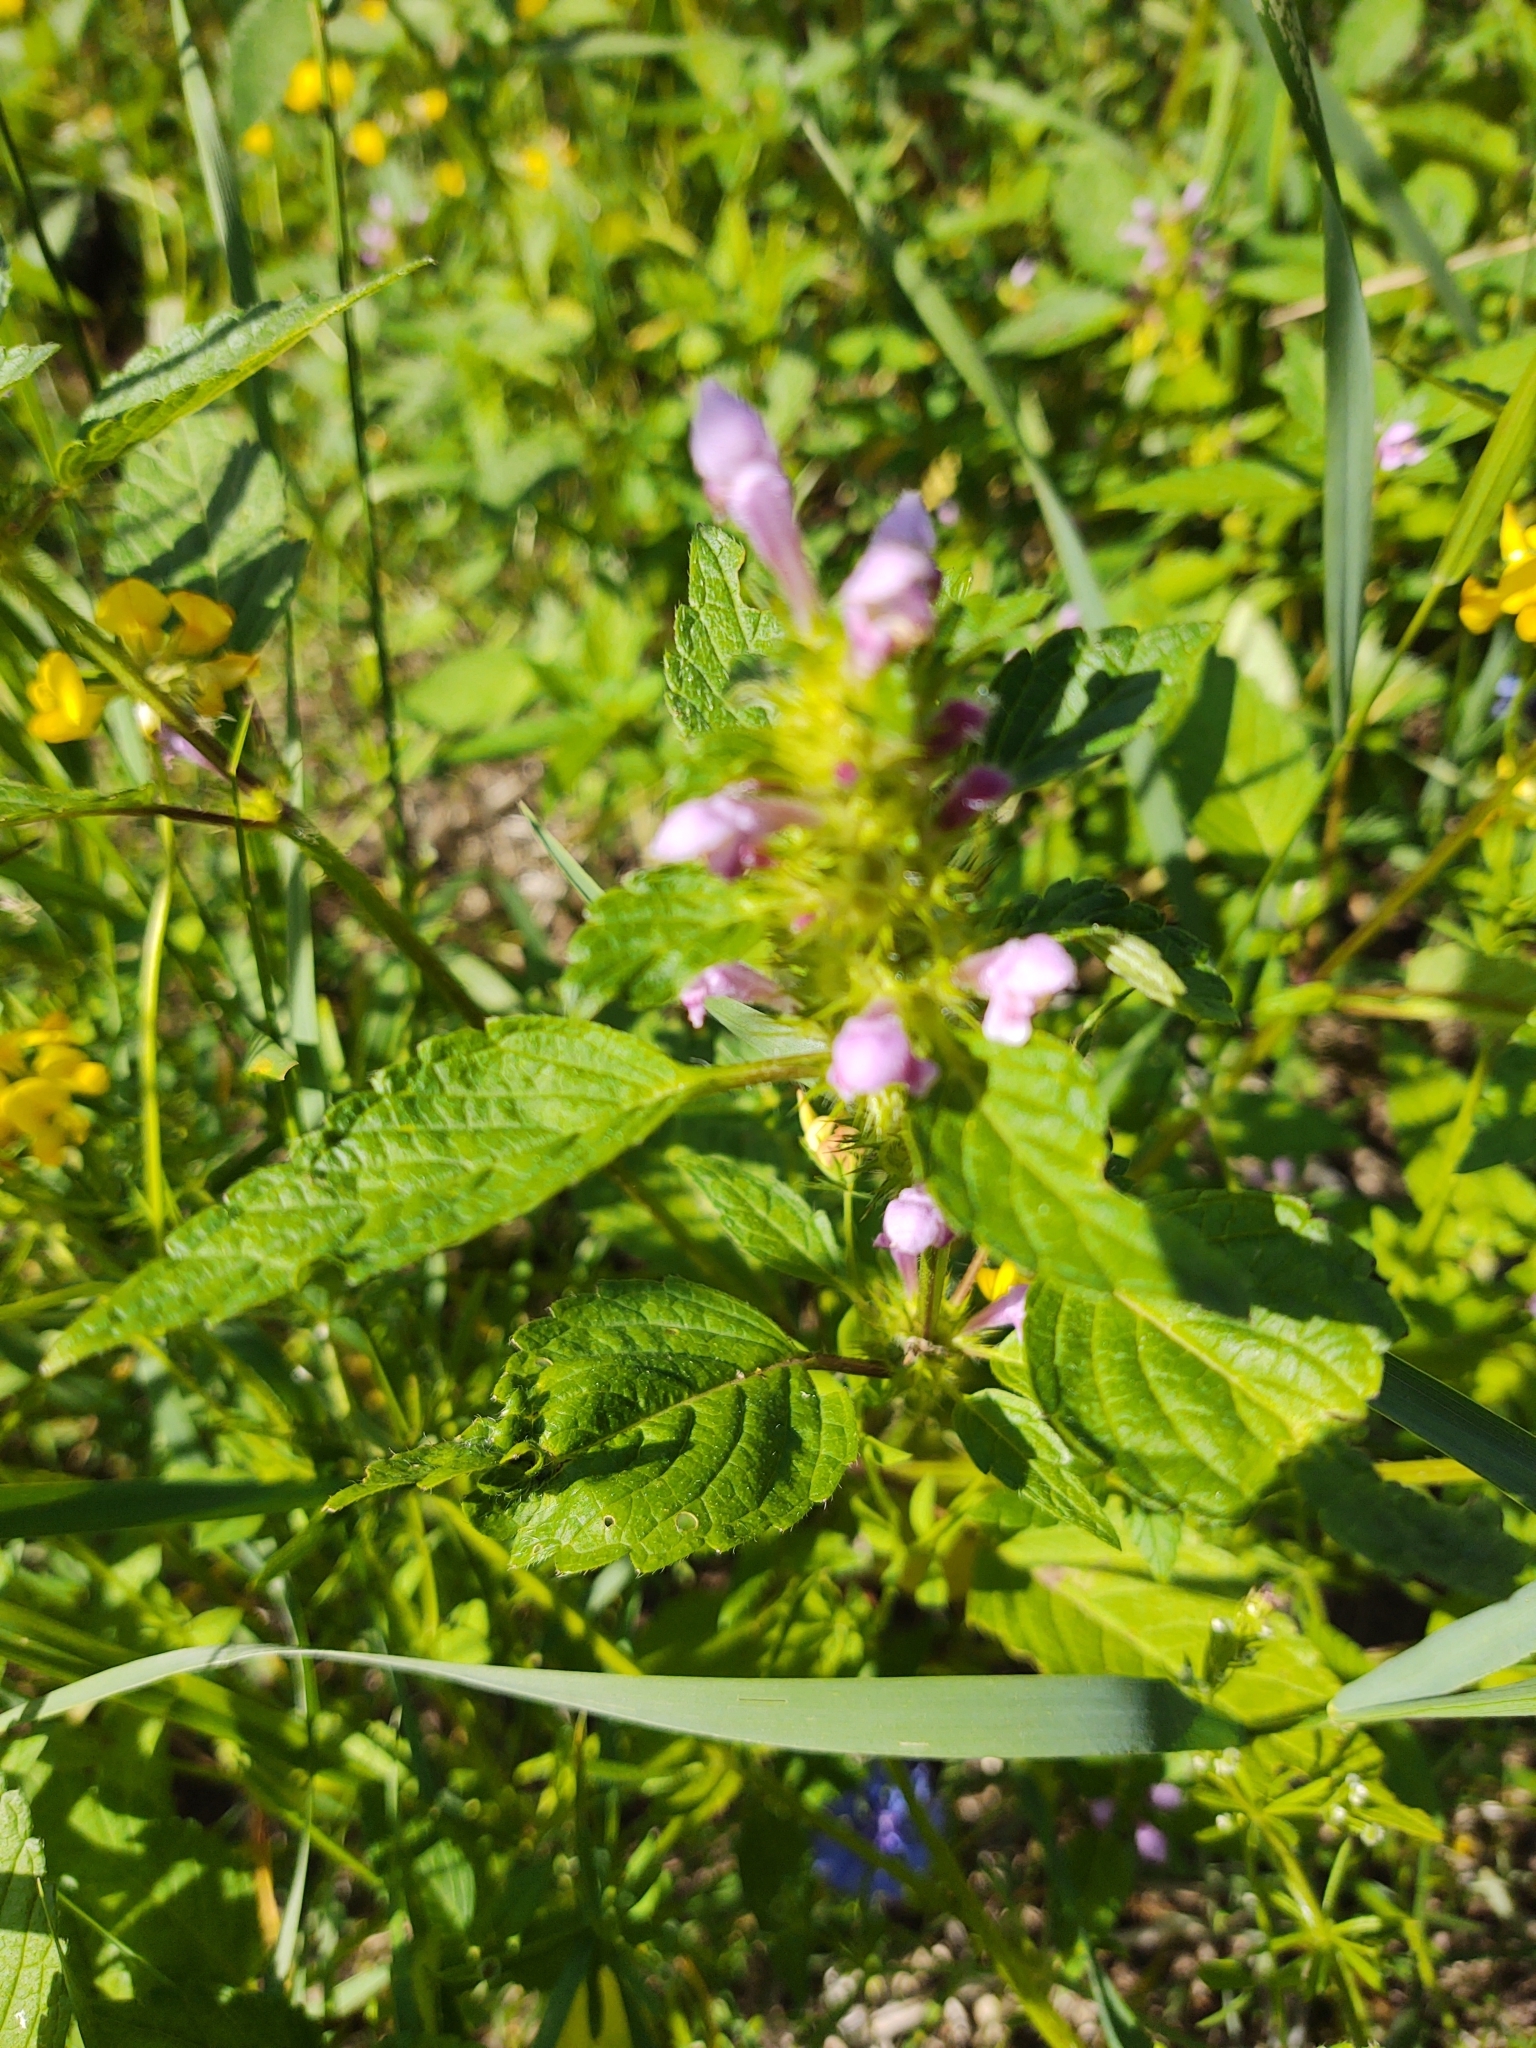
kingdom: Plantae
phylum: Tracheophyta
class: Magnoliopsida
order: Lamiales
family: Lamiaceae
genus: Galeopsis
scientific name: Galeopsis tetrahit
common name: Common hemp-nettle
